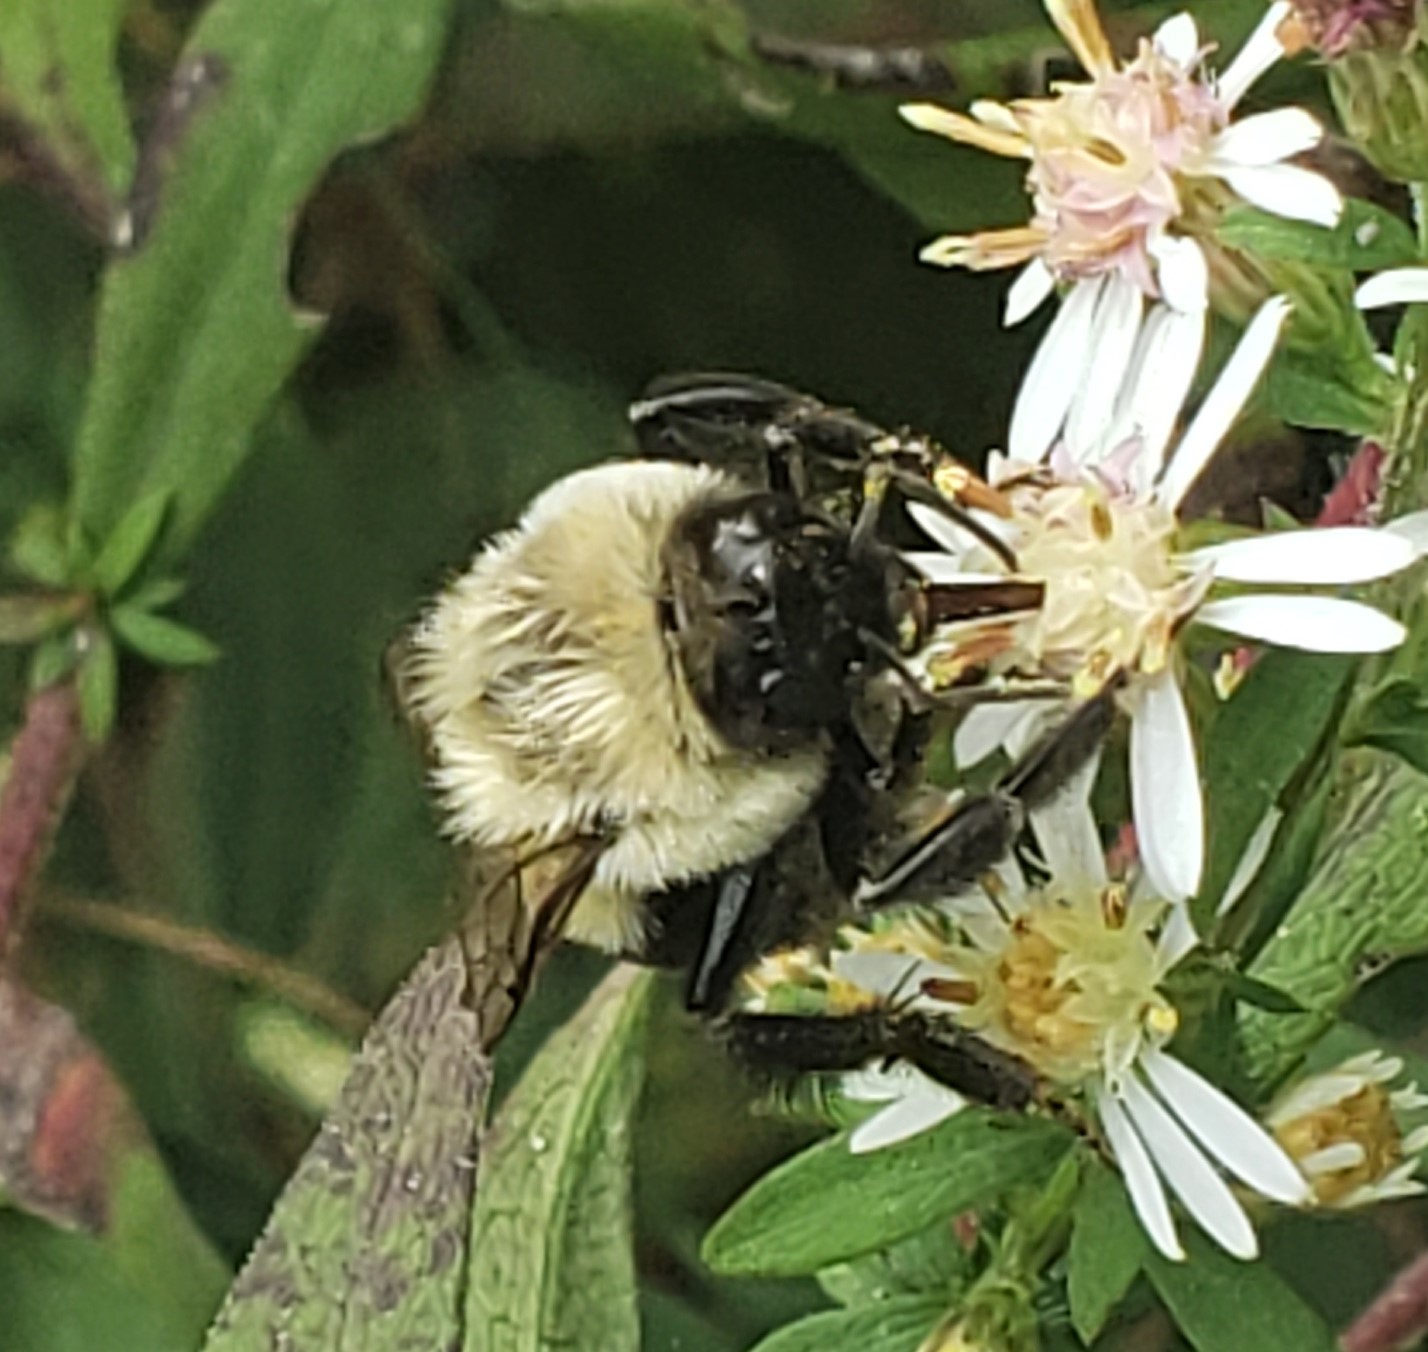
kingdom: Animalia
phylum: Arthropoda
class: Insecta
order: Hymenoptera
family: Apidae
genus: Bombus
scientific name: Bombus impatiens
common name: Common eastern bumble bee
